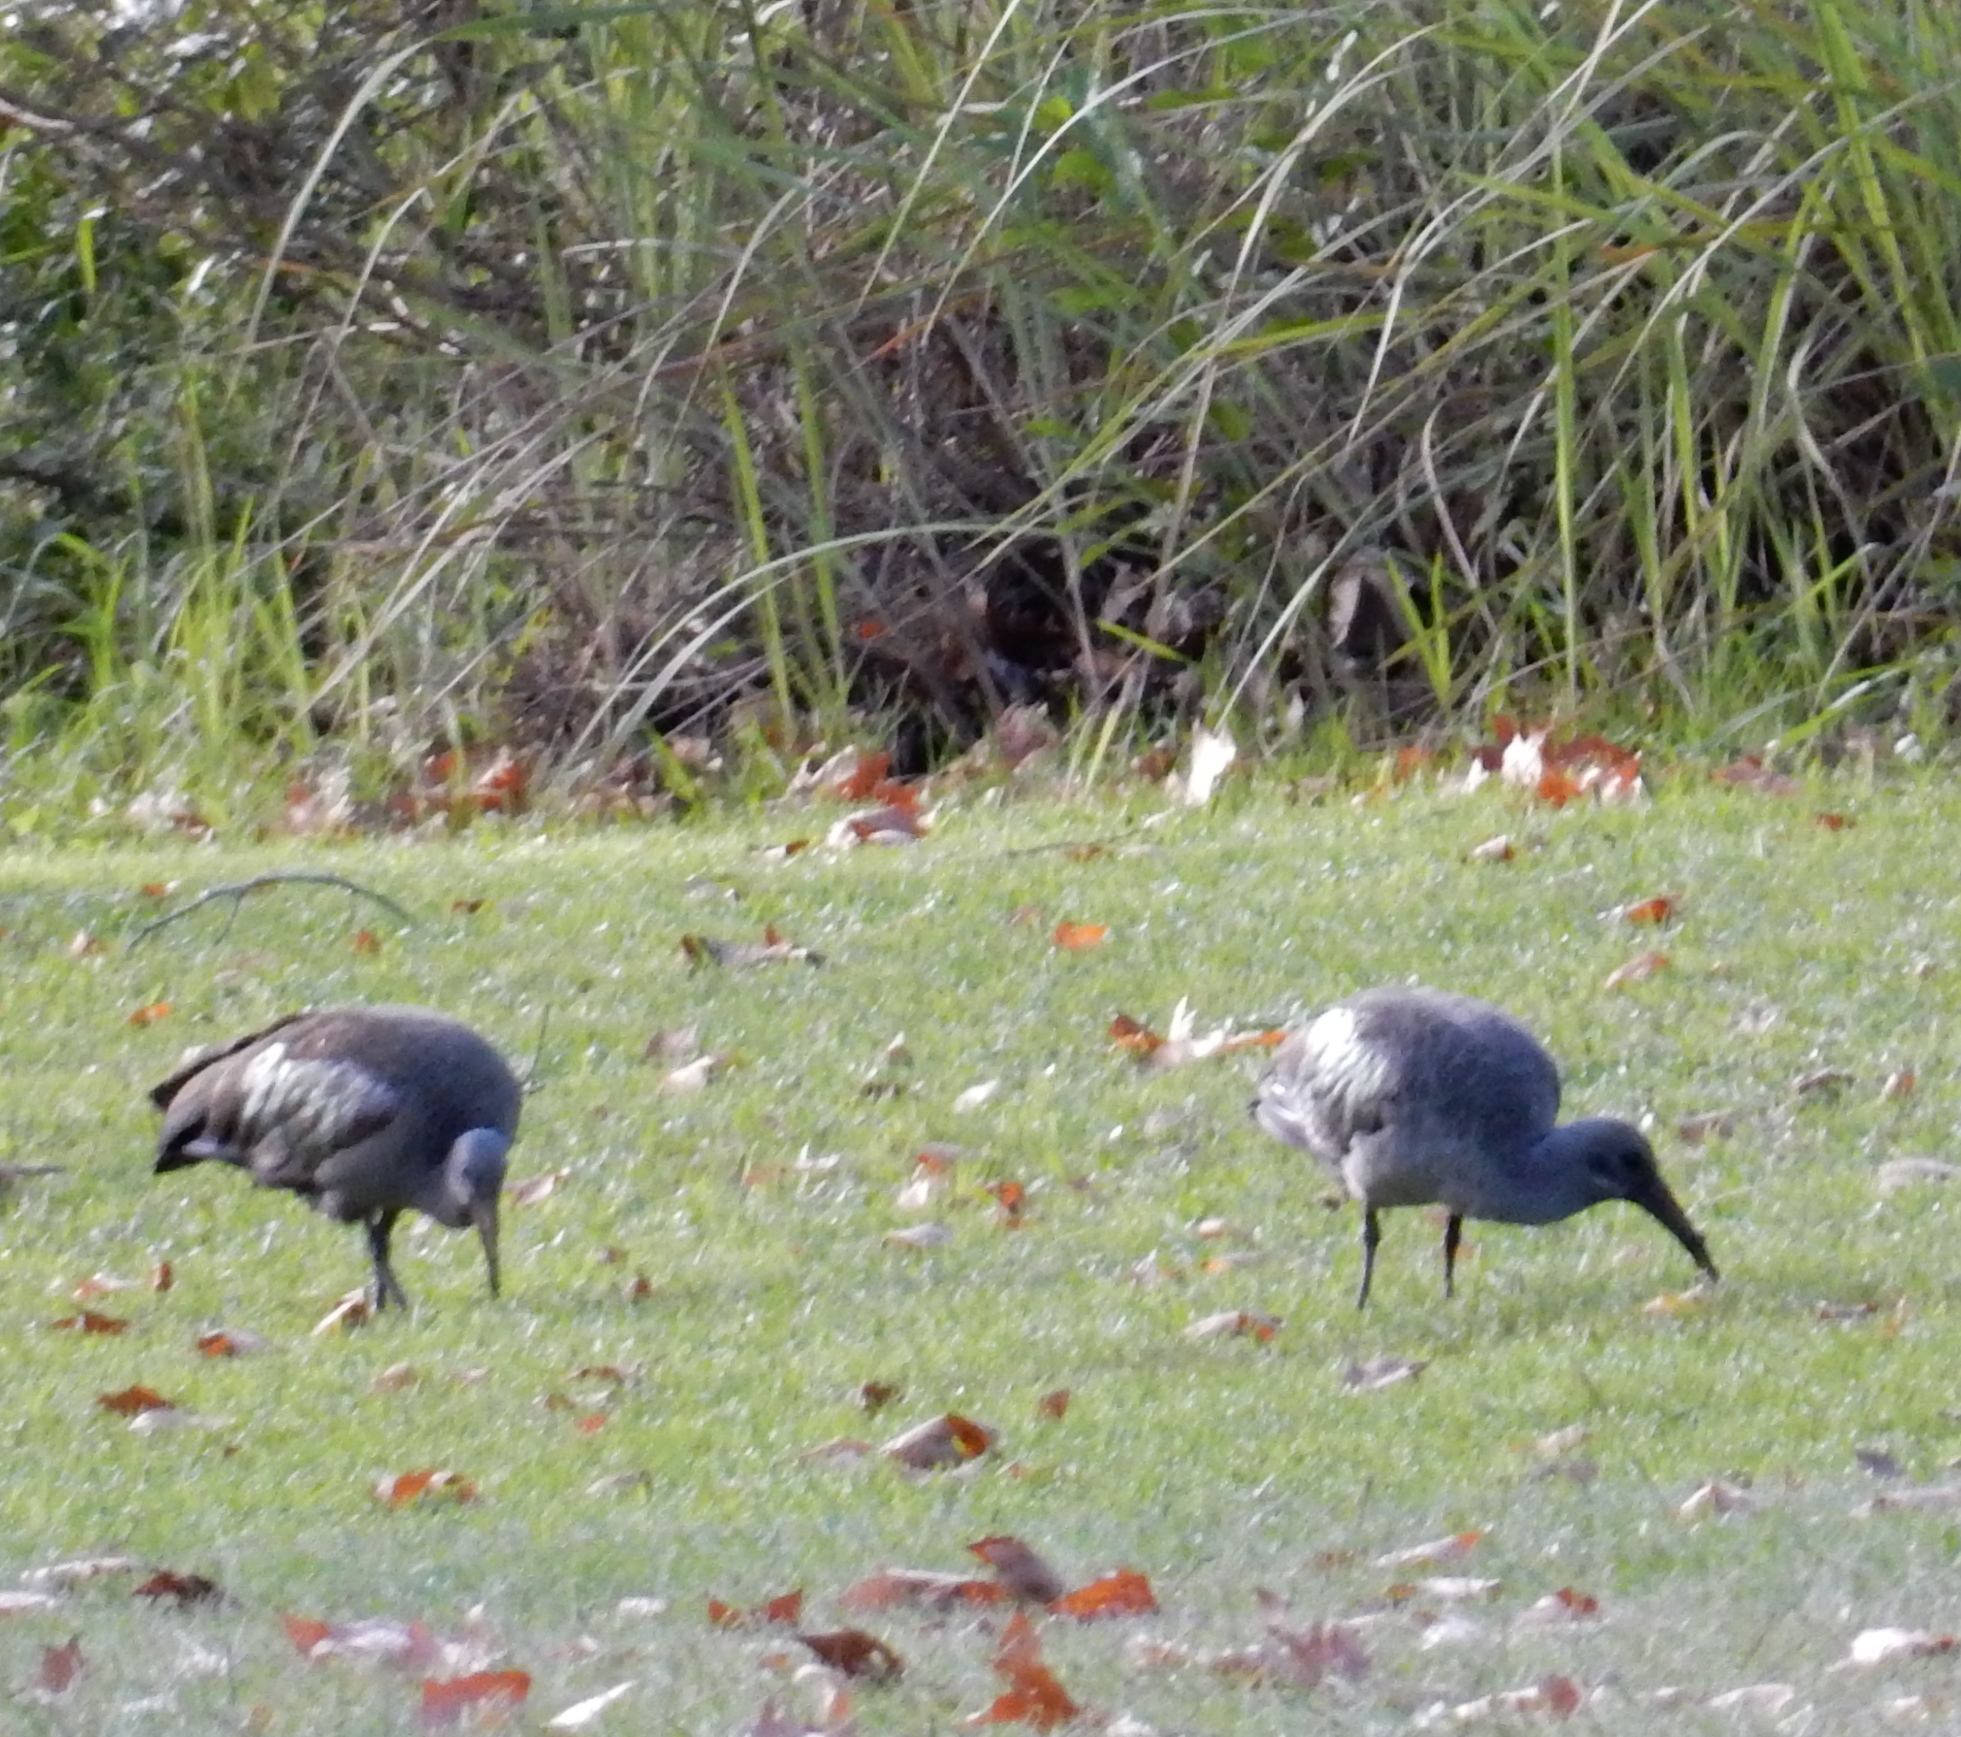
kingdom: Animalia
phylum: Chordata
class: Aves
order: Pelecaniformes
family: Threskiornithidae
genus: Bostrychia
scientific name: Bostrychia hagedash
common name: Hadada ibis
